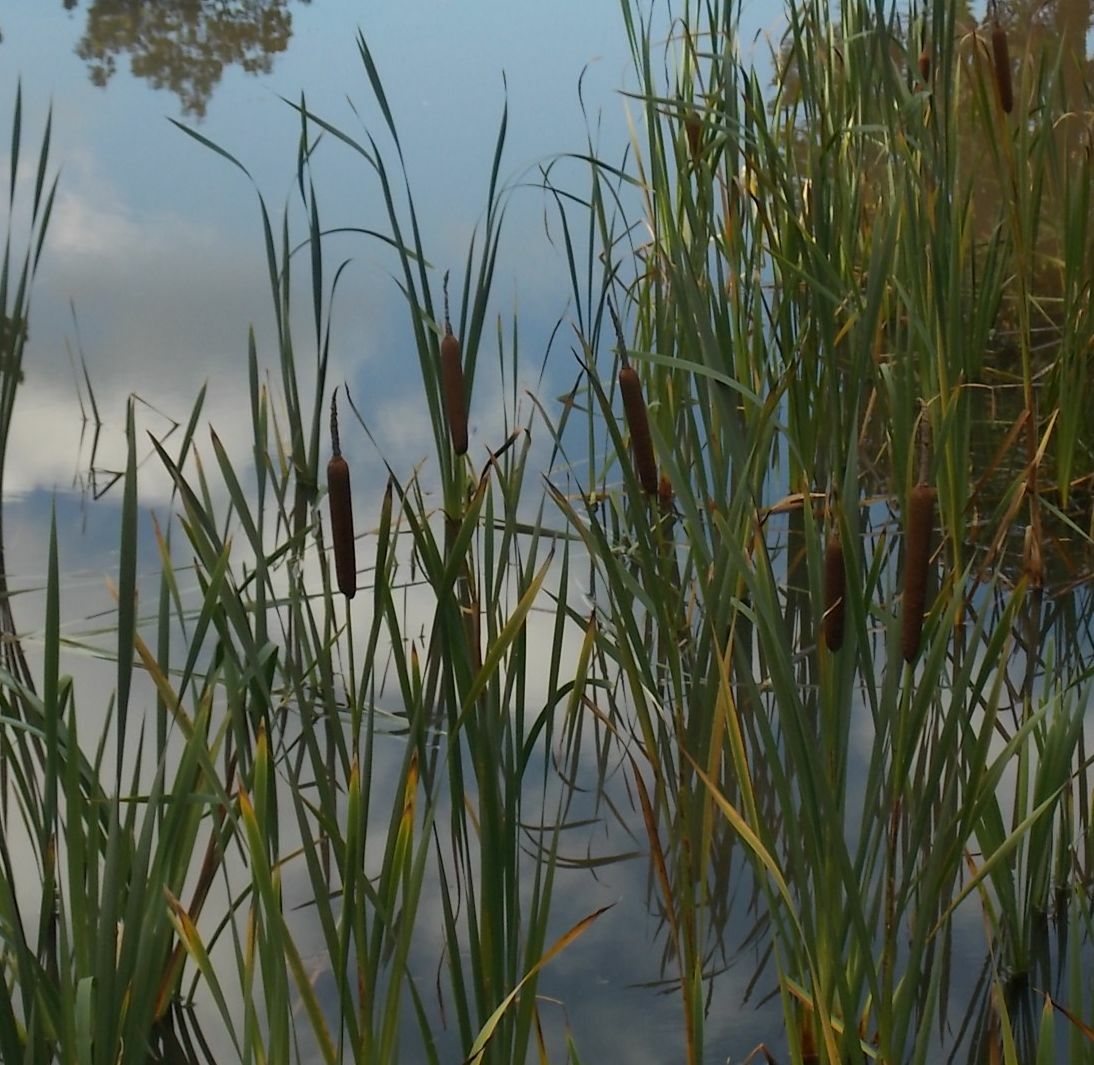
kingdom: Plantae
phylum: Tracheophyta
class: Liliopsida
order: Poales
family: Typhaceae
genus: Typha
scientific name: Typha latifolia
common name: Broadleaf cattail
